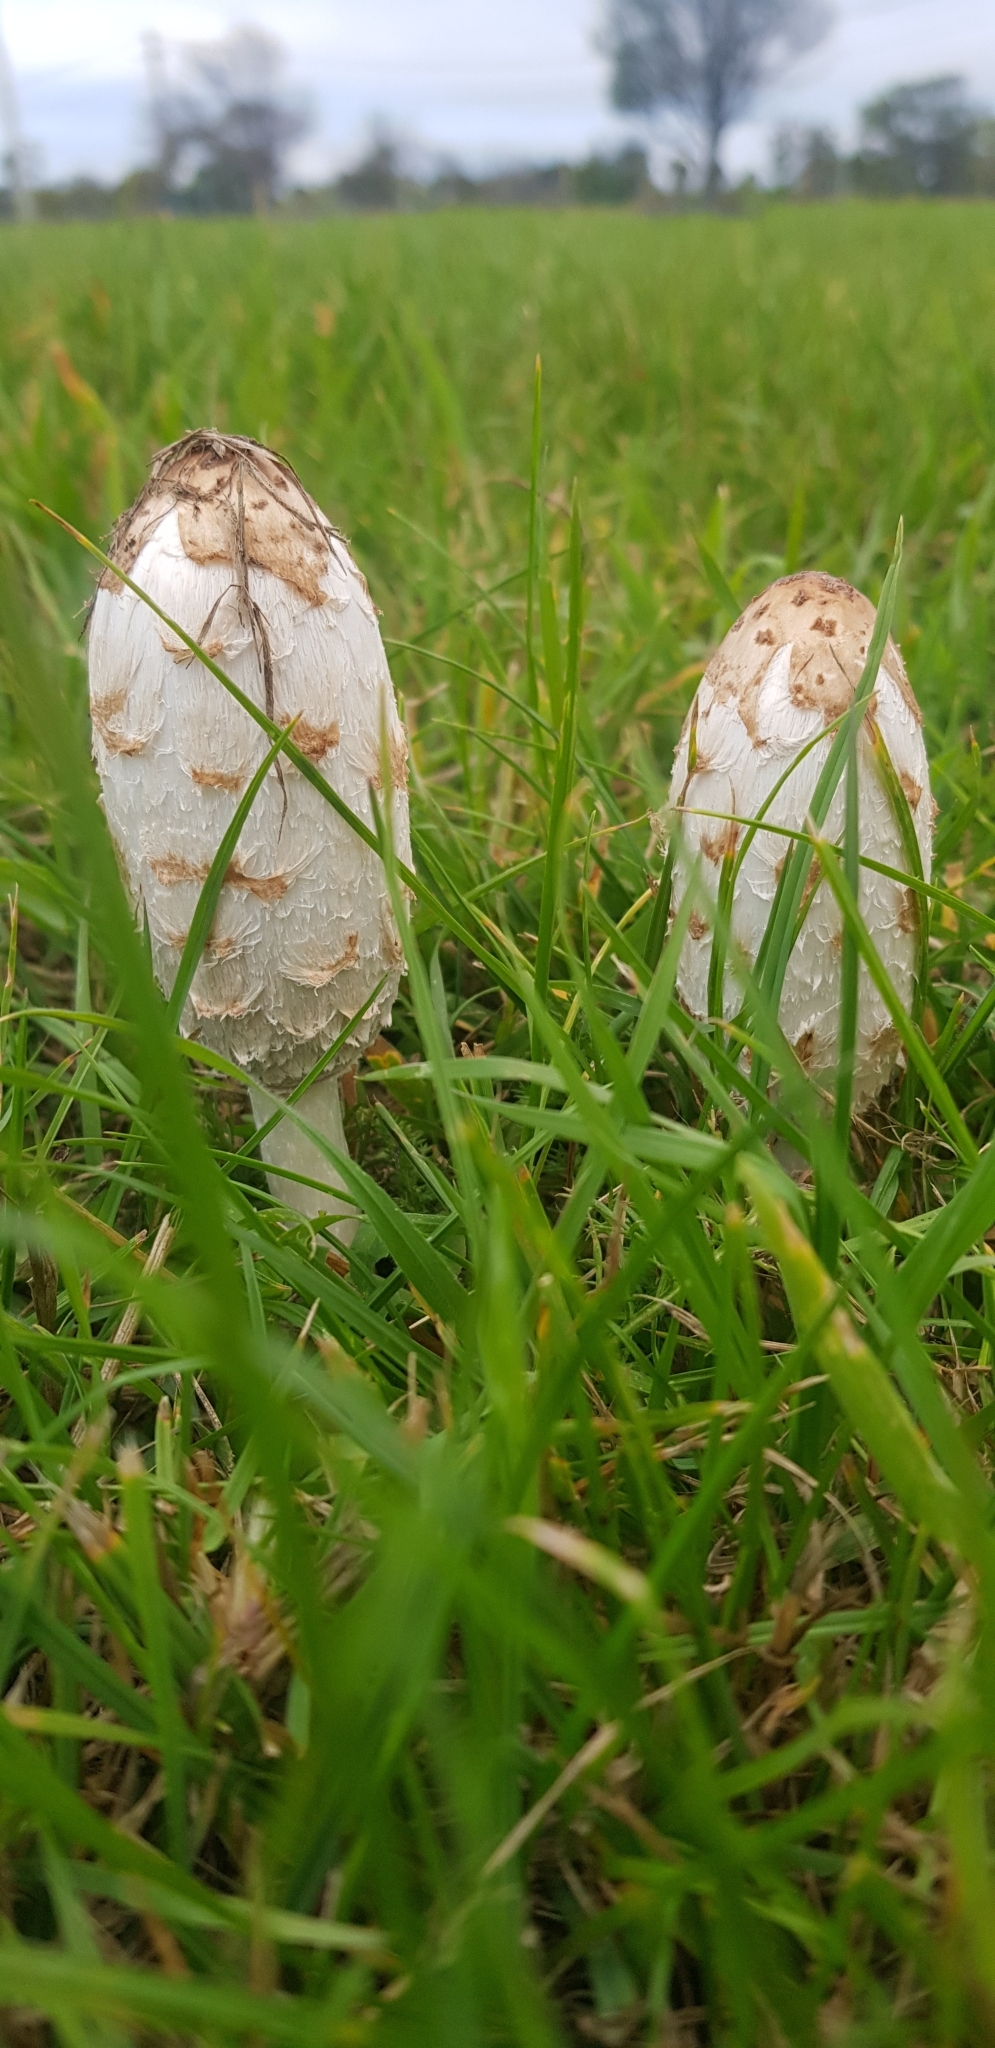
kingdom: Fungi
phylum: Basidiomycota
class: Agaricomycetes
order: Agaricales
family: Agaricaceae
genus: Coprinus
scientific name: Coprinus comatus
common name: Lawyer's wig
